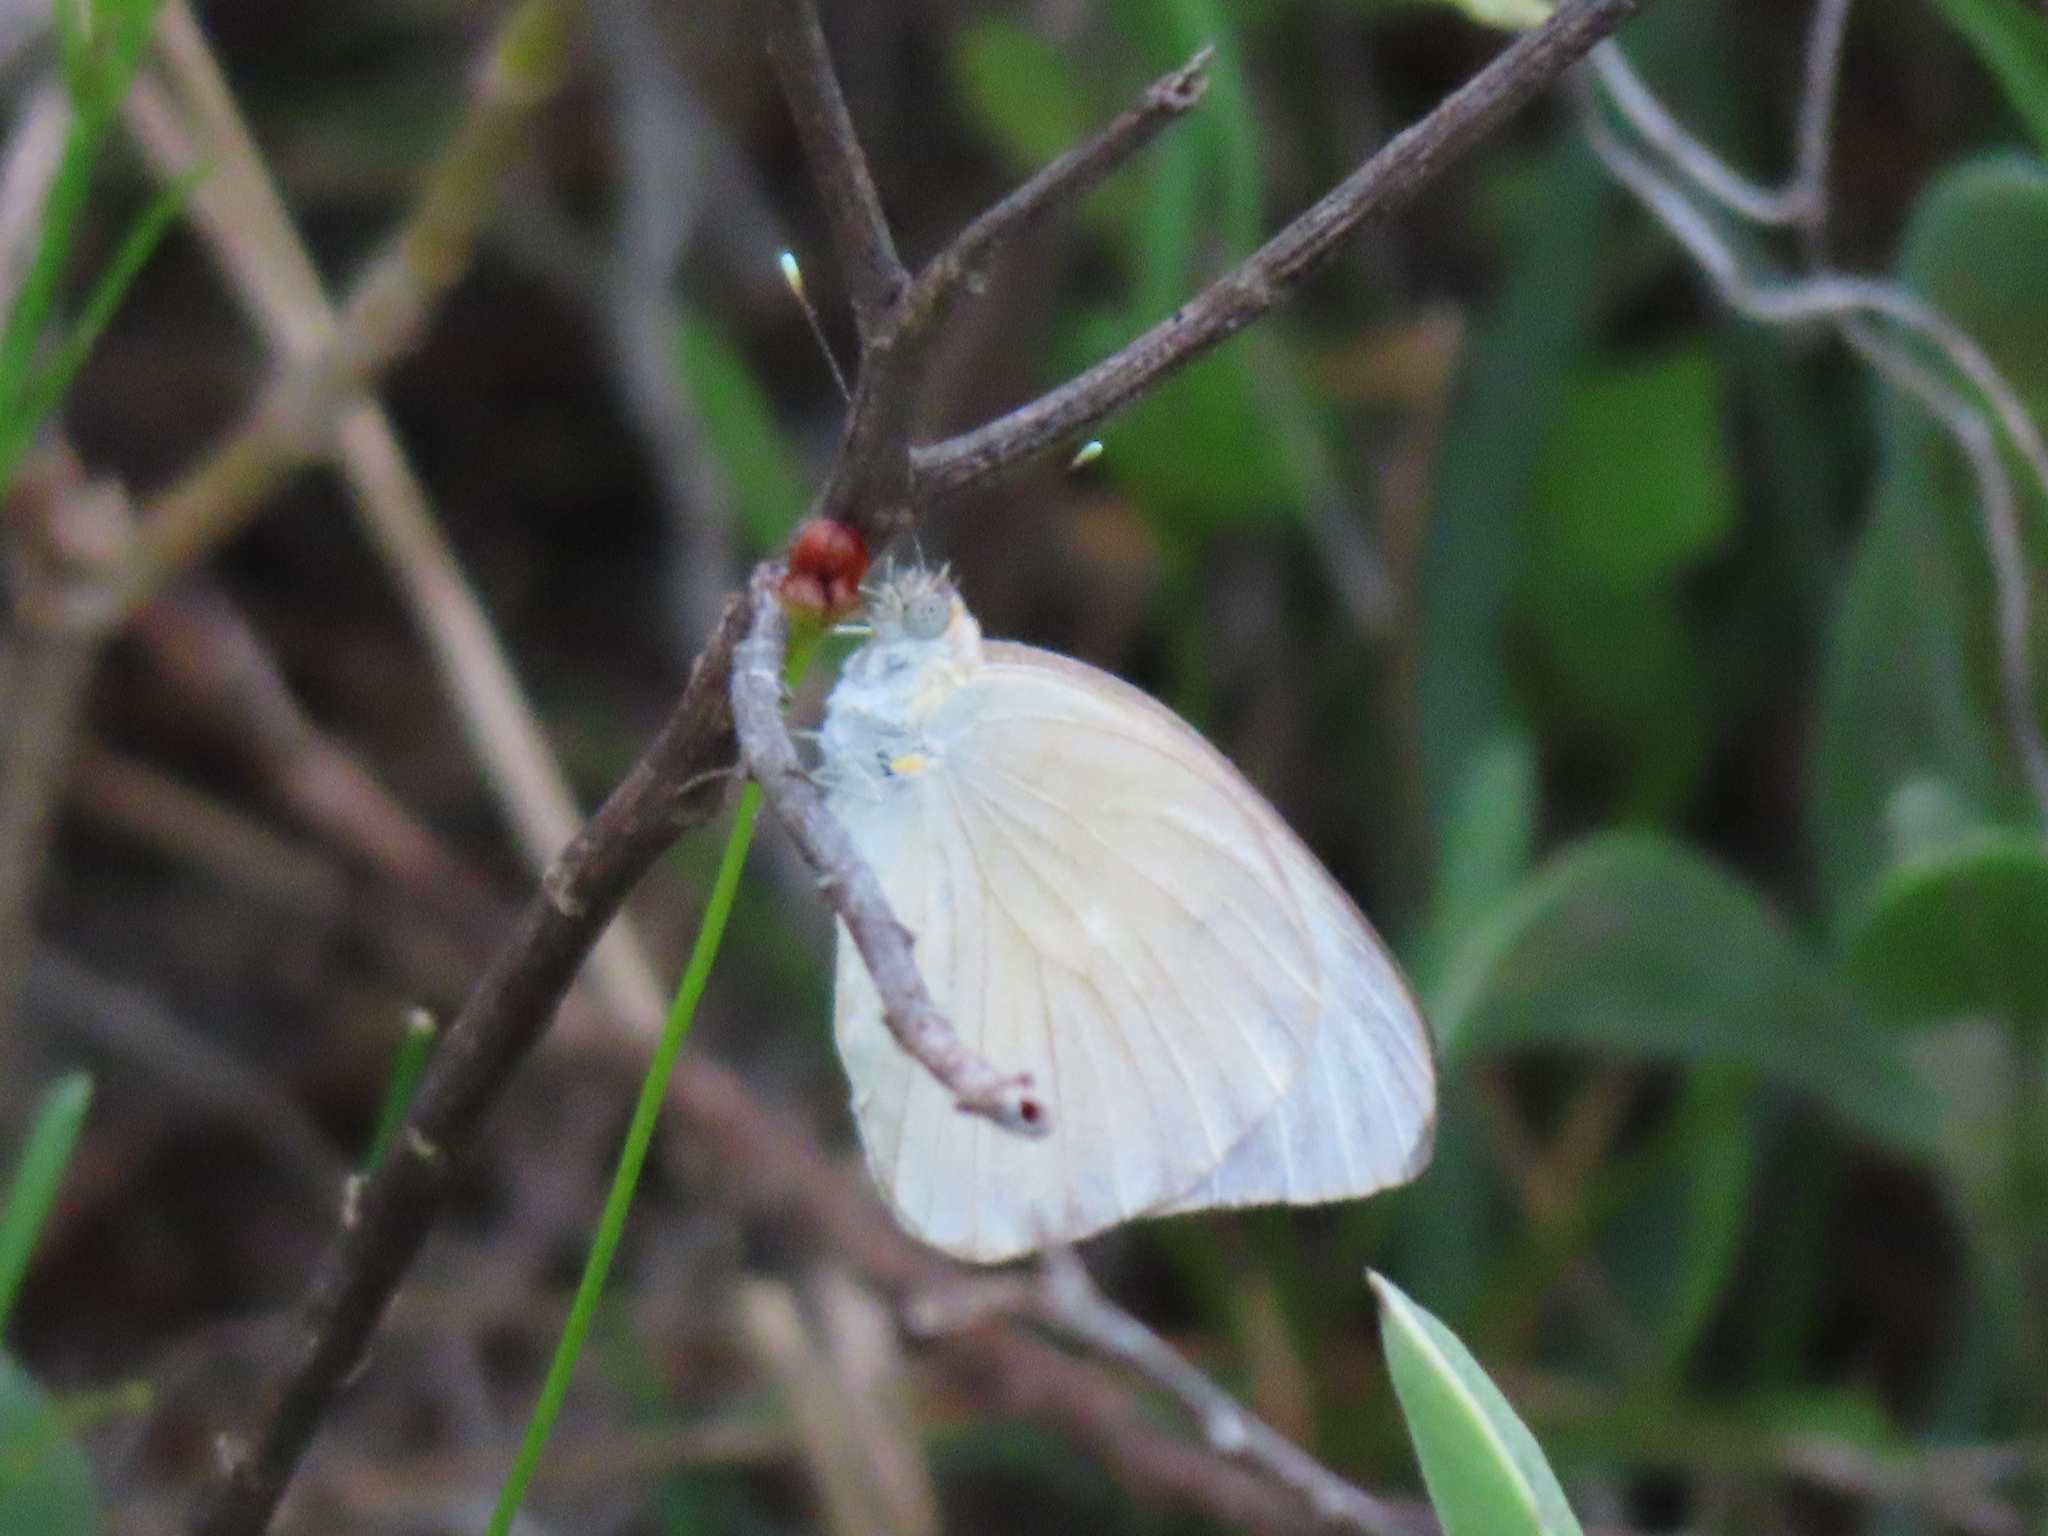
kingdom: Animalia
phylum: Arthropoda
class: Insecta
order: Lepidoptera
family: Pieridae
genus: Ascia
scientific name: Ascia monuste
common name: Great southern white
